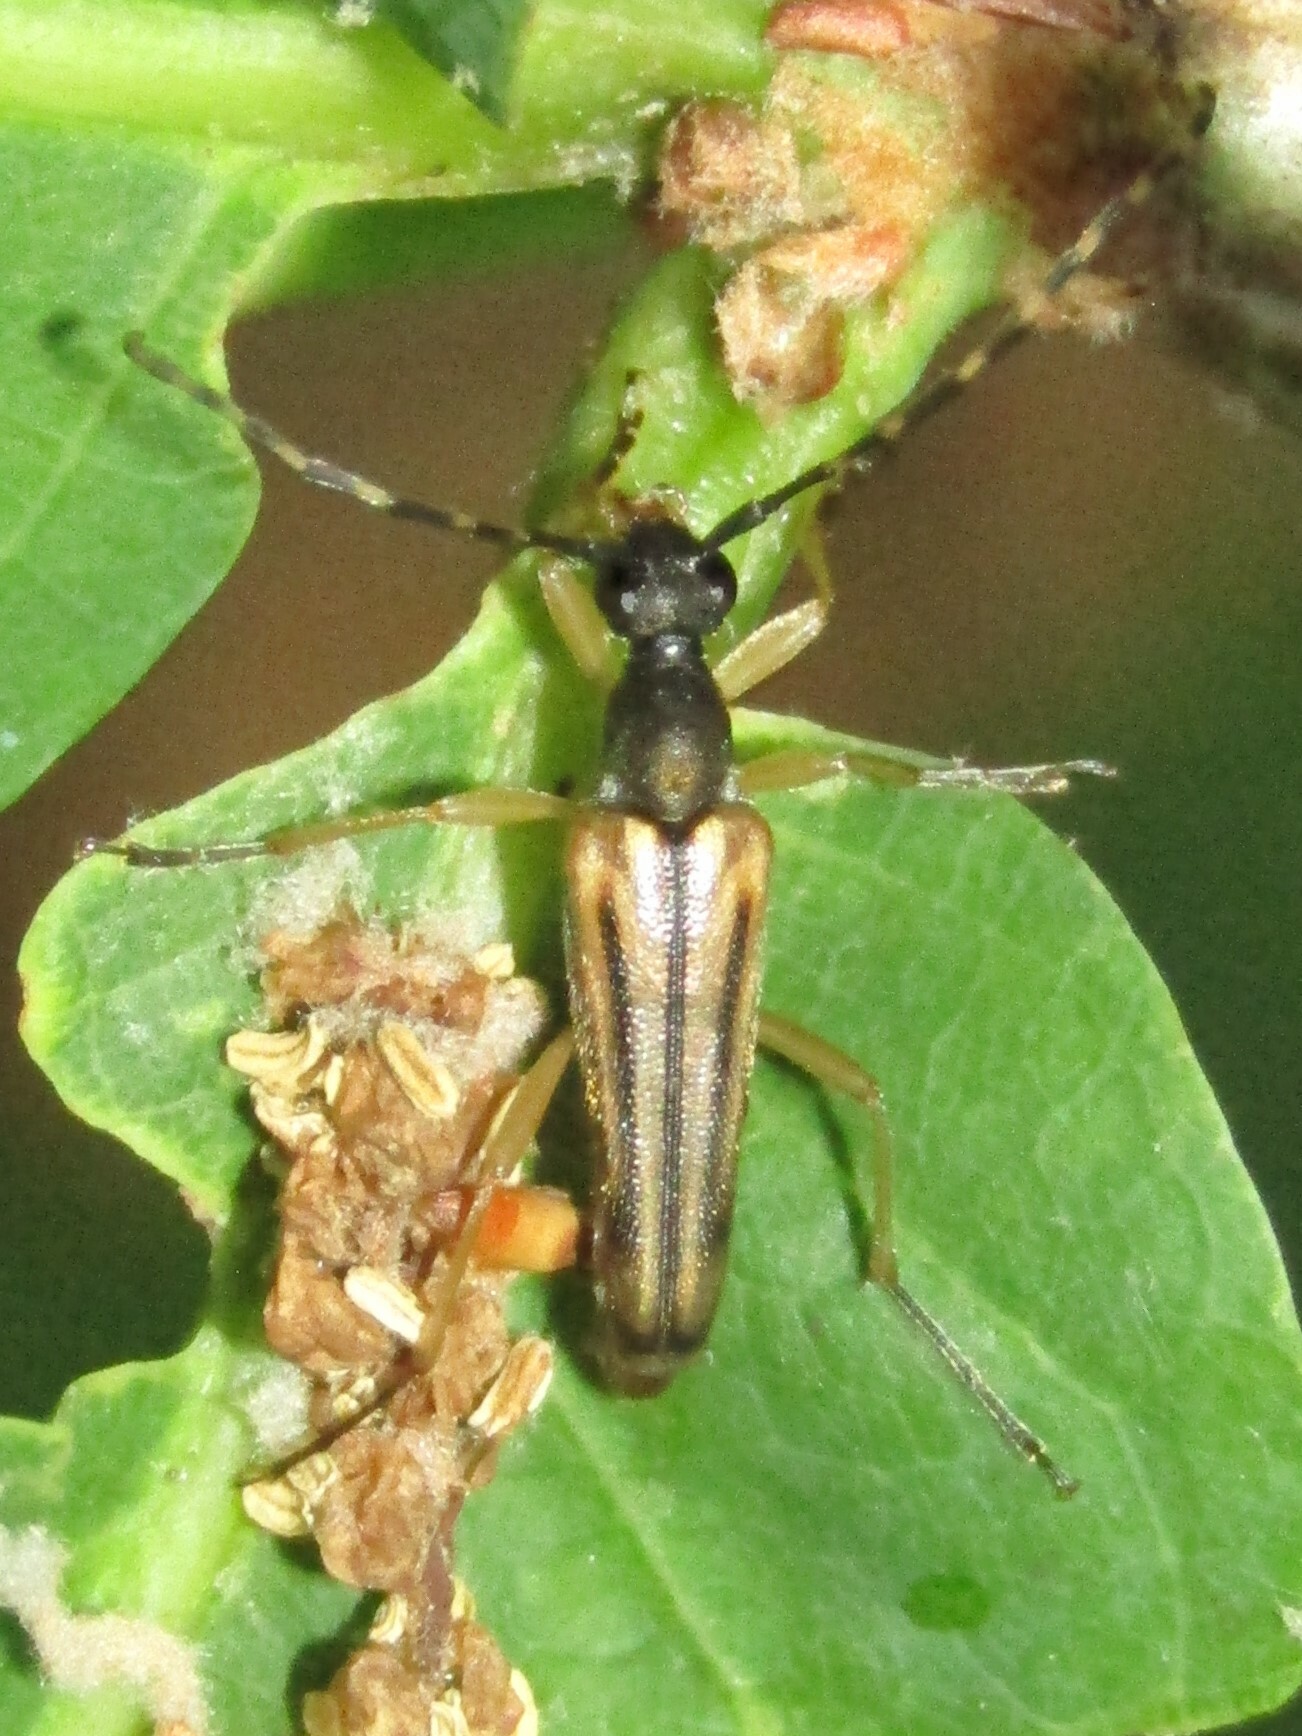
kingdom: Animalia
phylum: Arthropoda
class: Insecta
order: Coleoptera
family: Cerambycidae
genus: Analeptura
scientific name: Analeptura lineola
